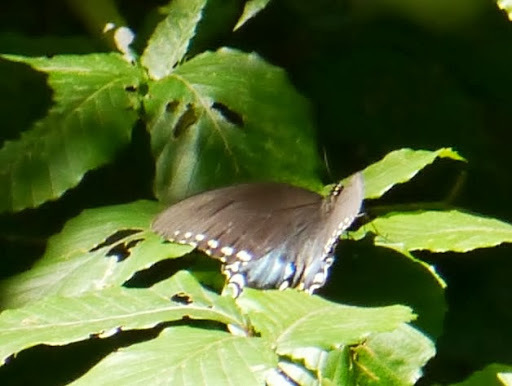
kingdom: Animalia
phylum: Arthropoda
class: Insecta
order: Lepidoptera
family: Papilionidae
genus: Papilio
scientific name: Papilio troilus
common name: Spicebush swallowtail
